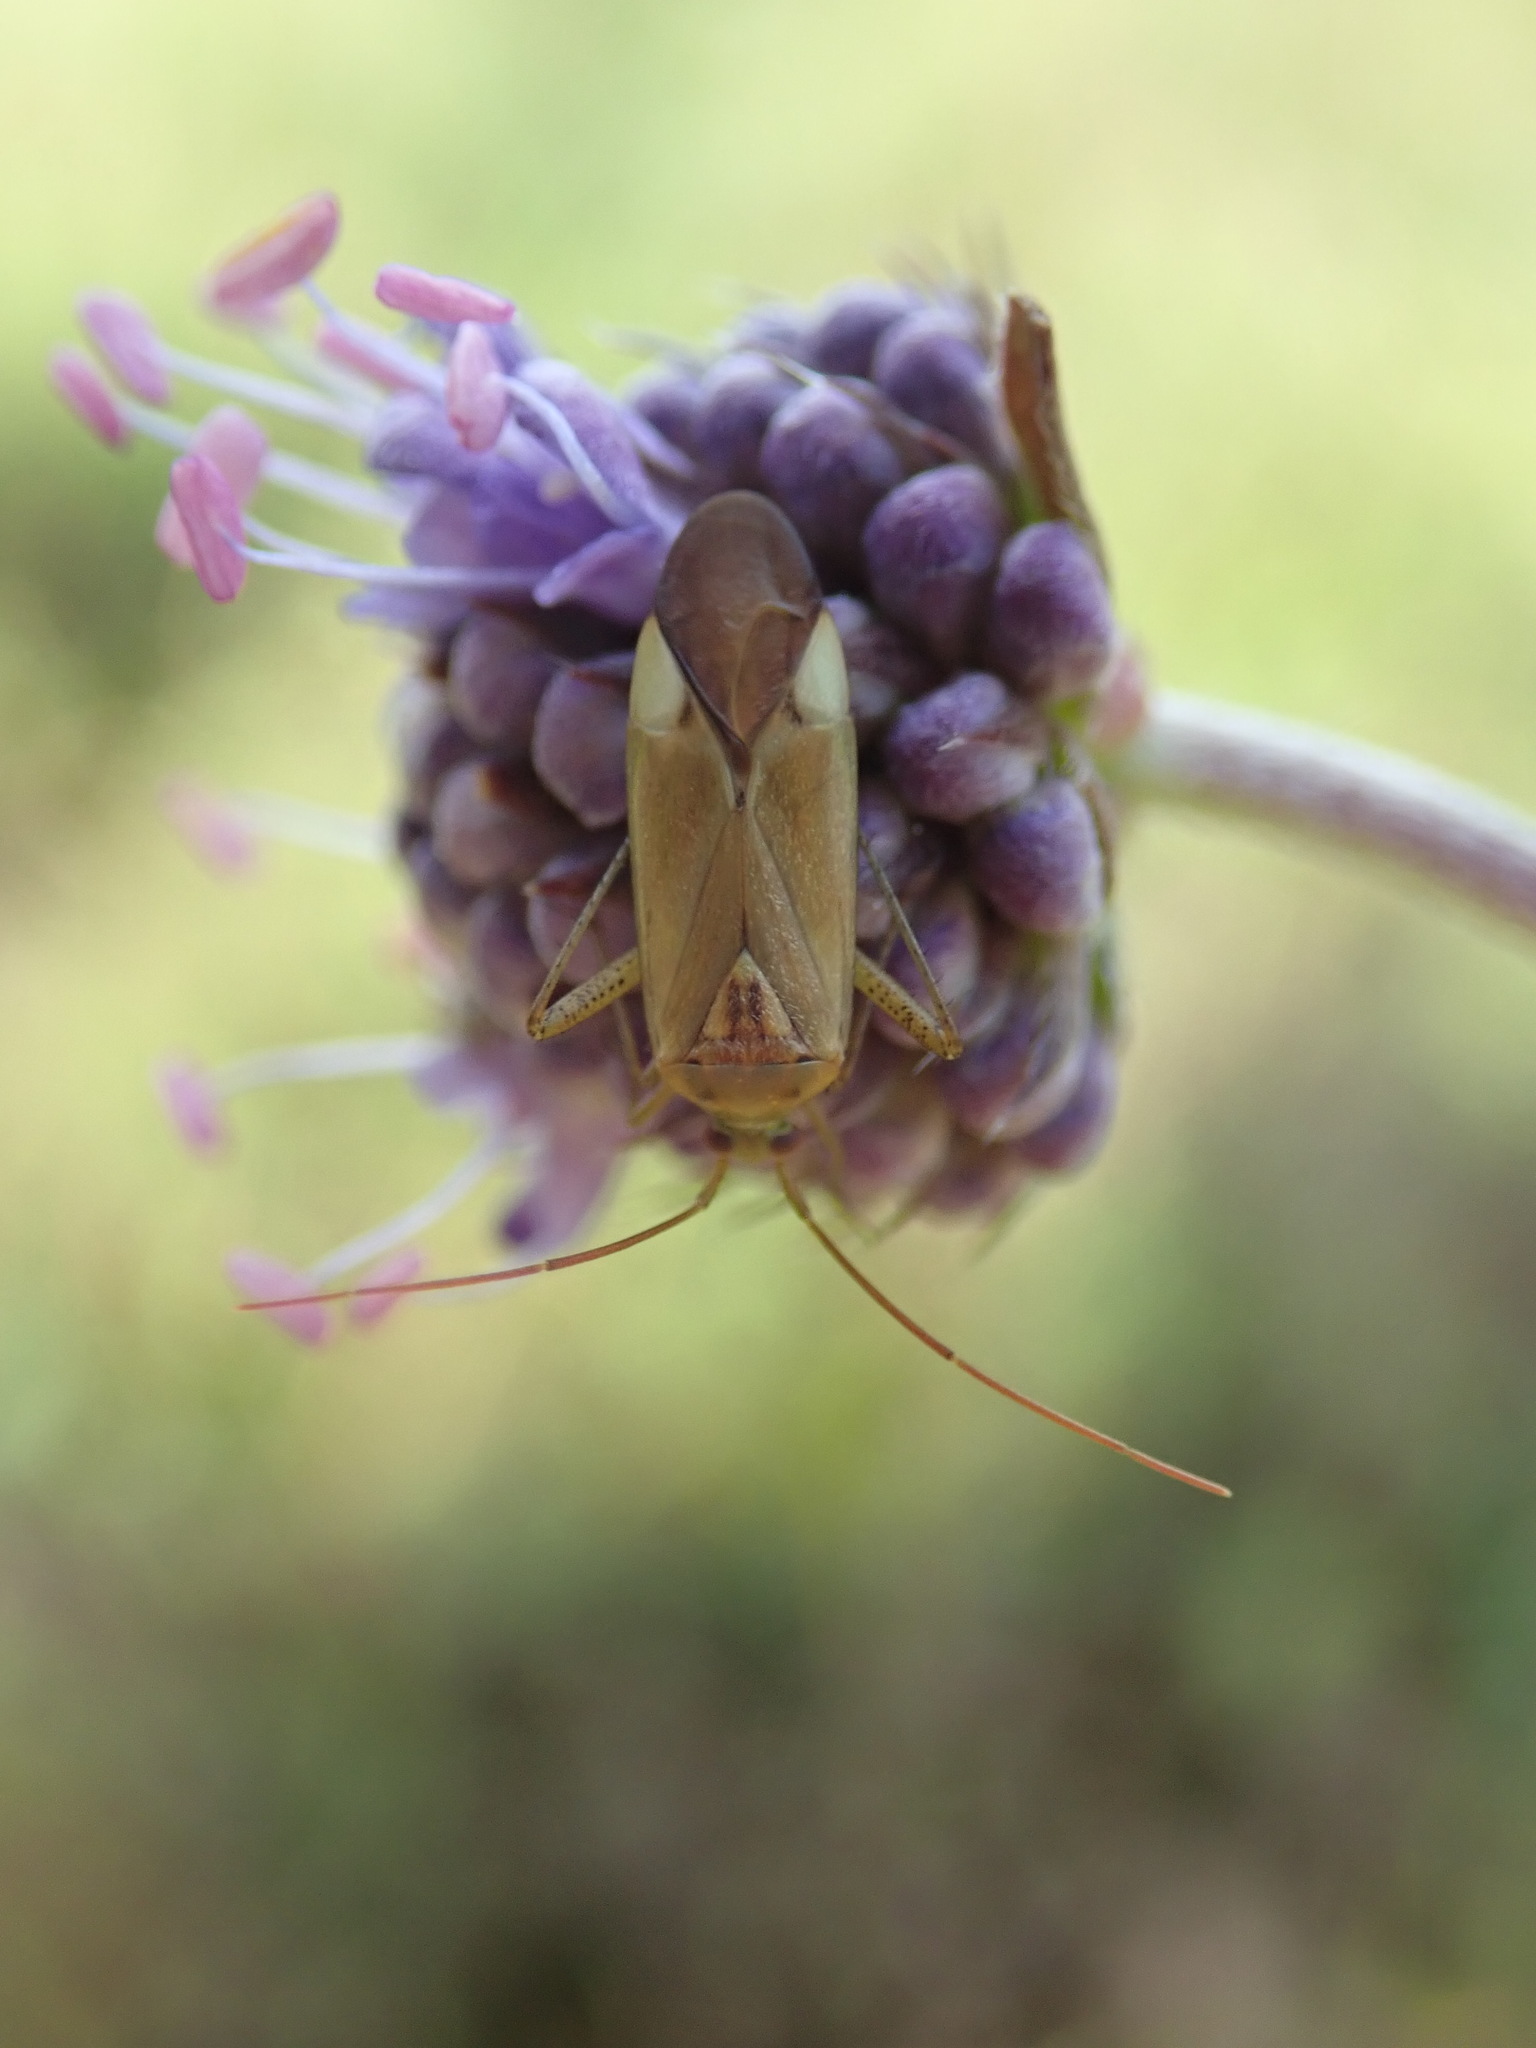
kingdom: Animalia
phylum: Arthropoda
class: Insecta
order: Hemiptera
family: Miridae
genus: Adelphocoris
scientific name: Adelphocoris lineolatus
